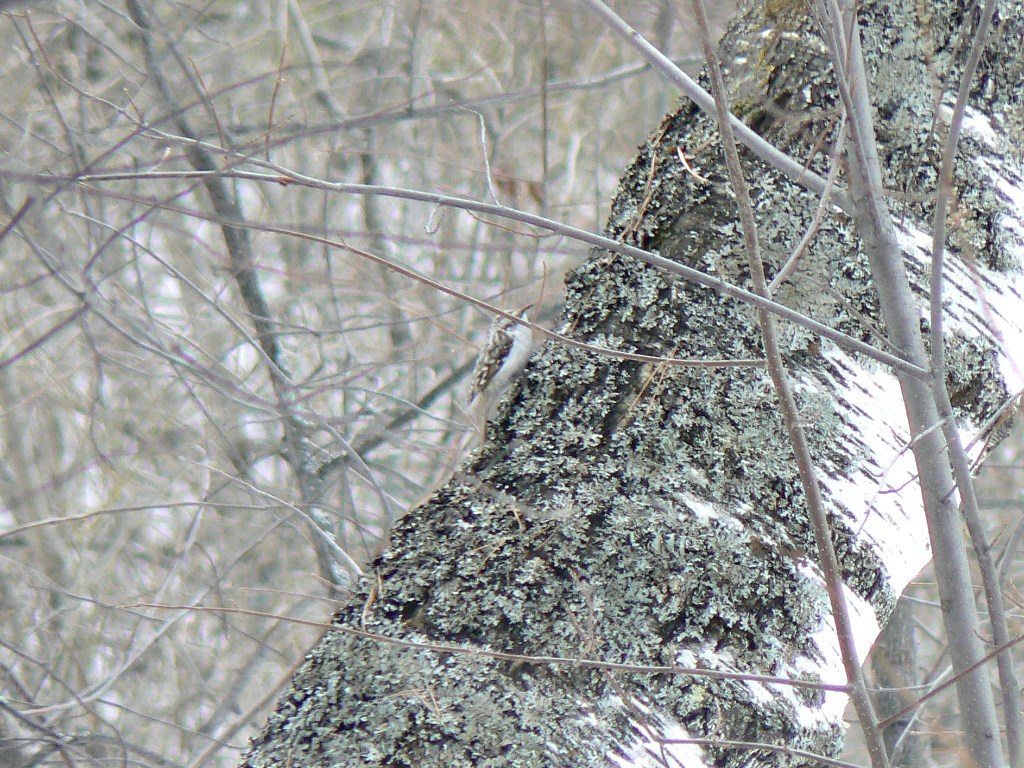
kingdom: Animalia
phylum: Chordata
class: Aves
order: Passeriformes
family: Certhiidae
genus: Certhia
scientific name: Certhia familiaris
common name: Eurasian treecreeper
